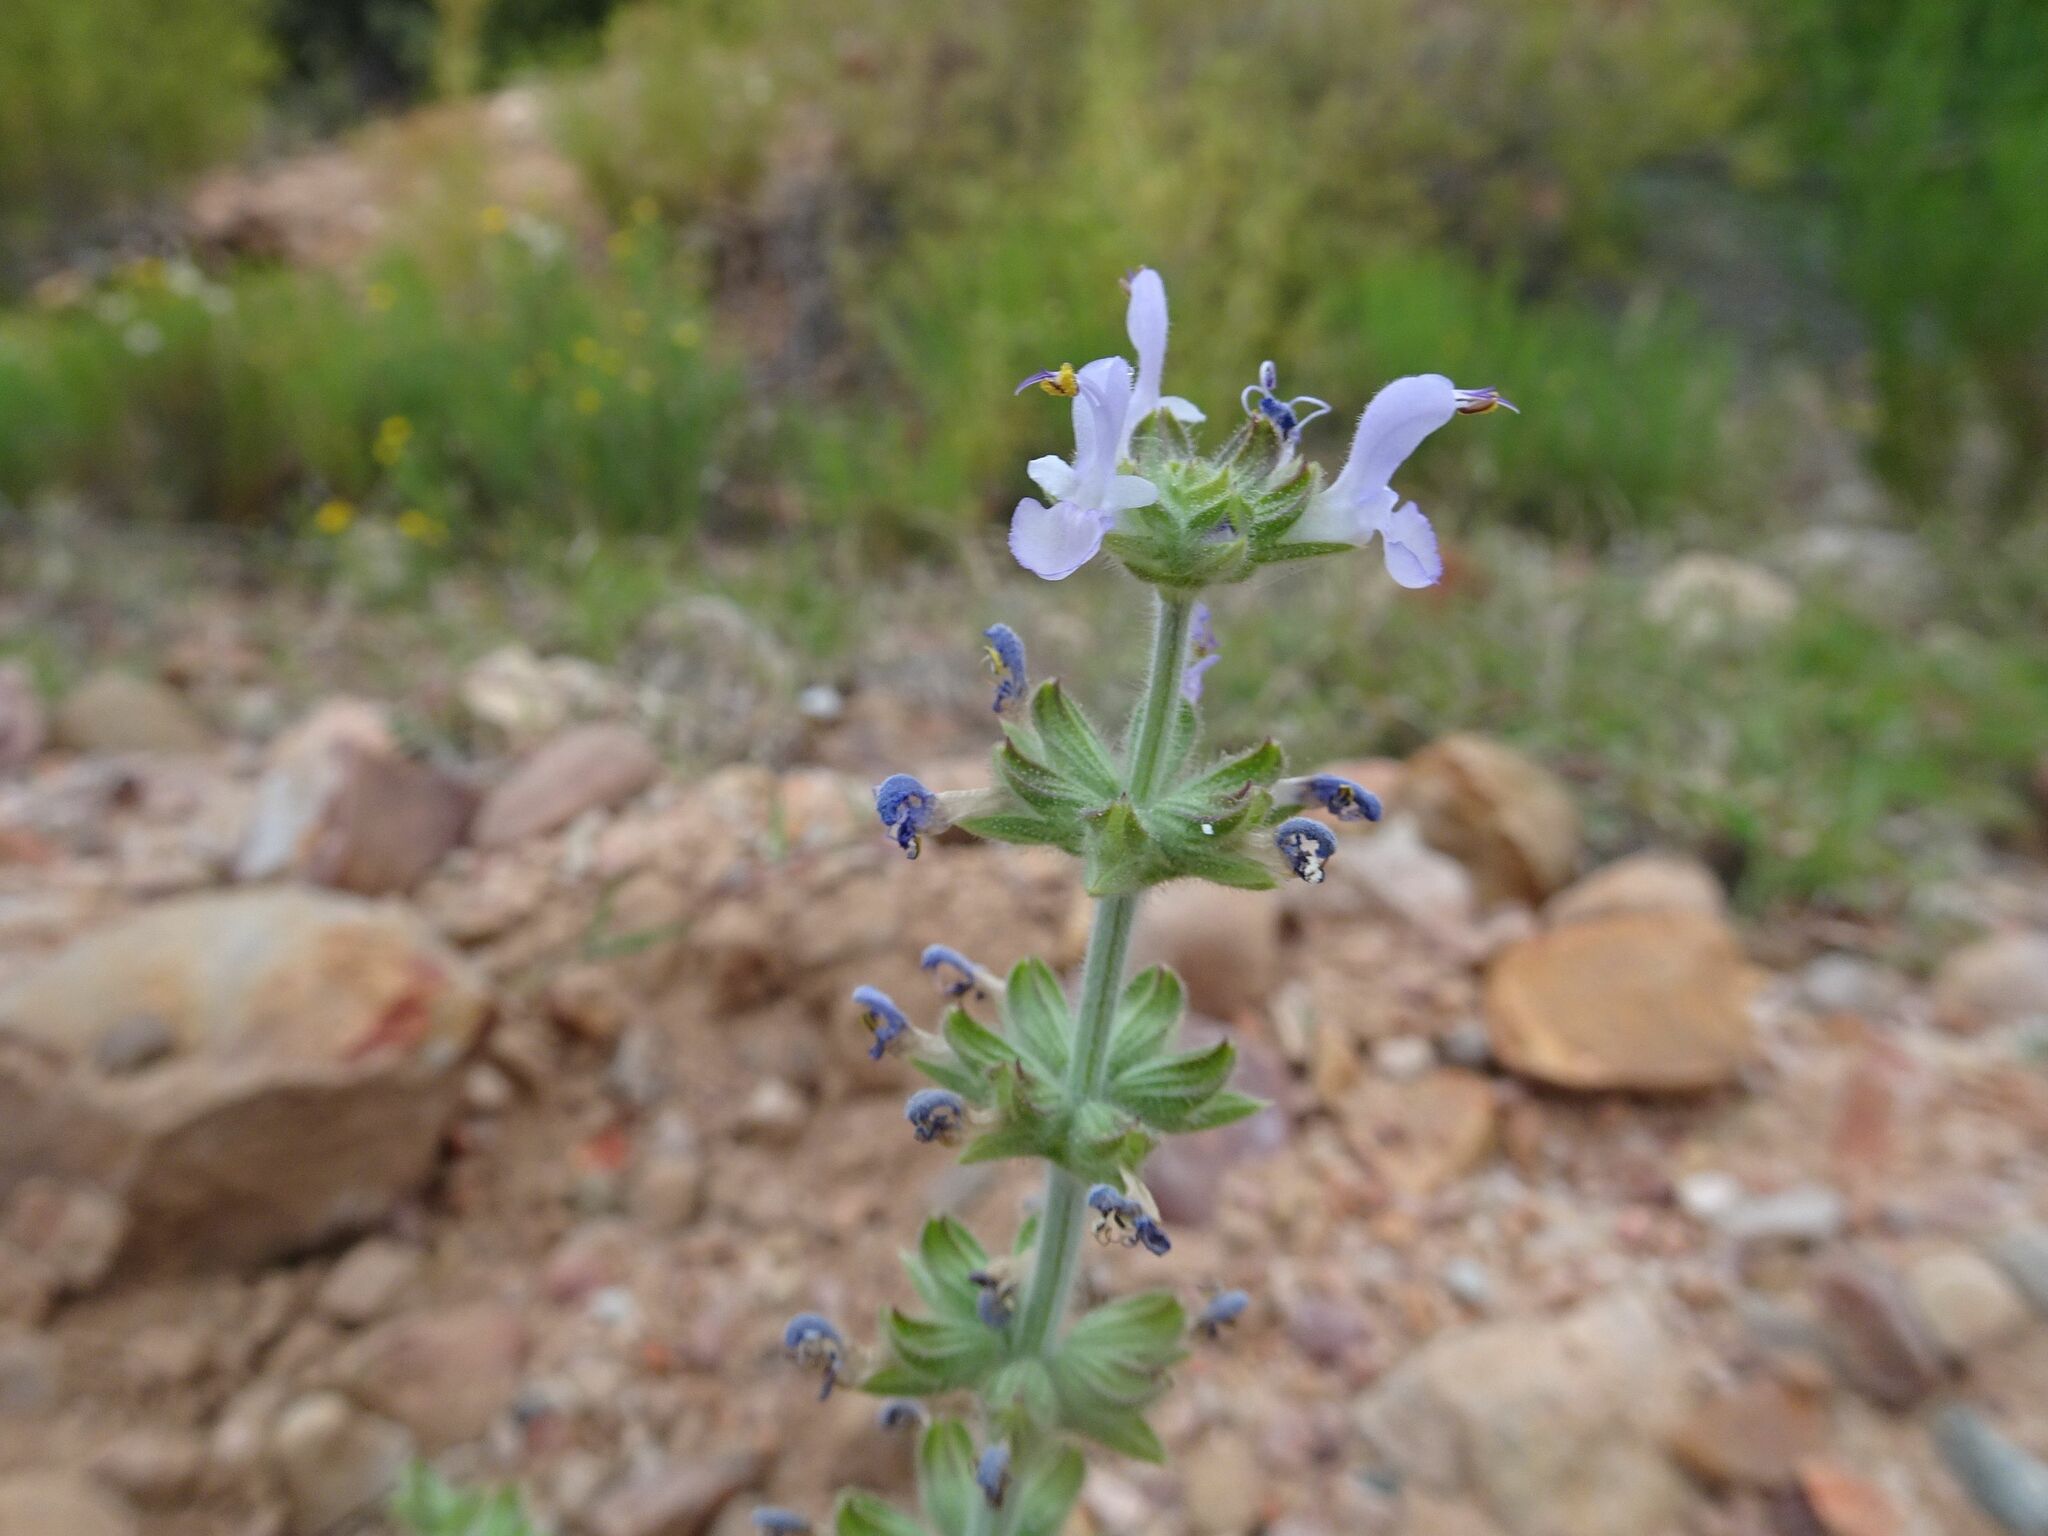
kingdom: Plantae
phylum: Tracheophyta
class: Magnoliopsida
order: Lamiales
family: Lamiaceae
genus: Salvia
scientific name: Salvia verbenaca
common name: Wild clary
